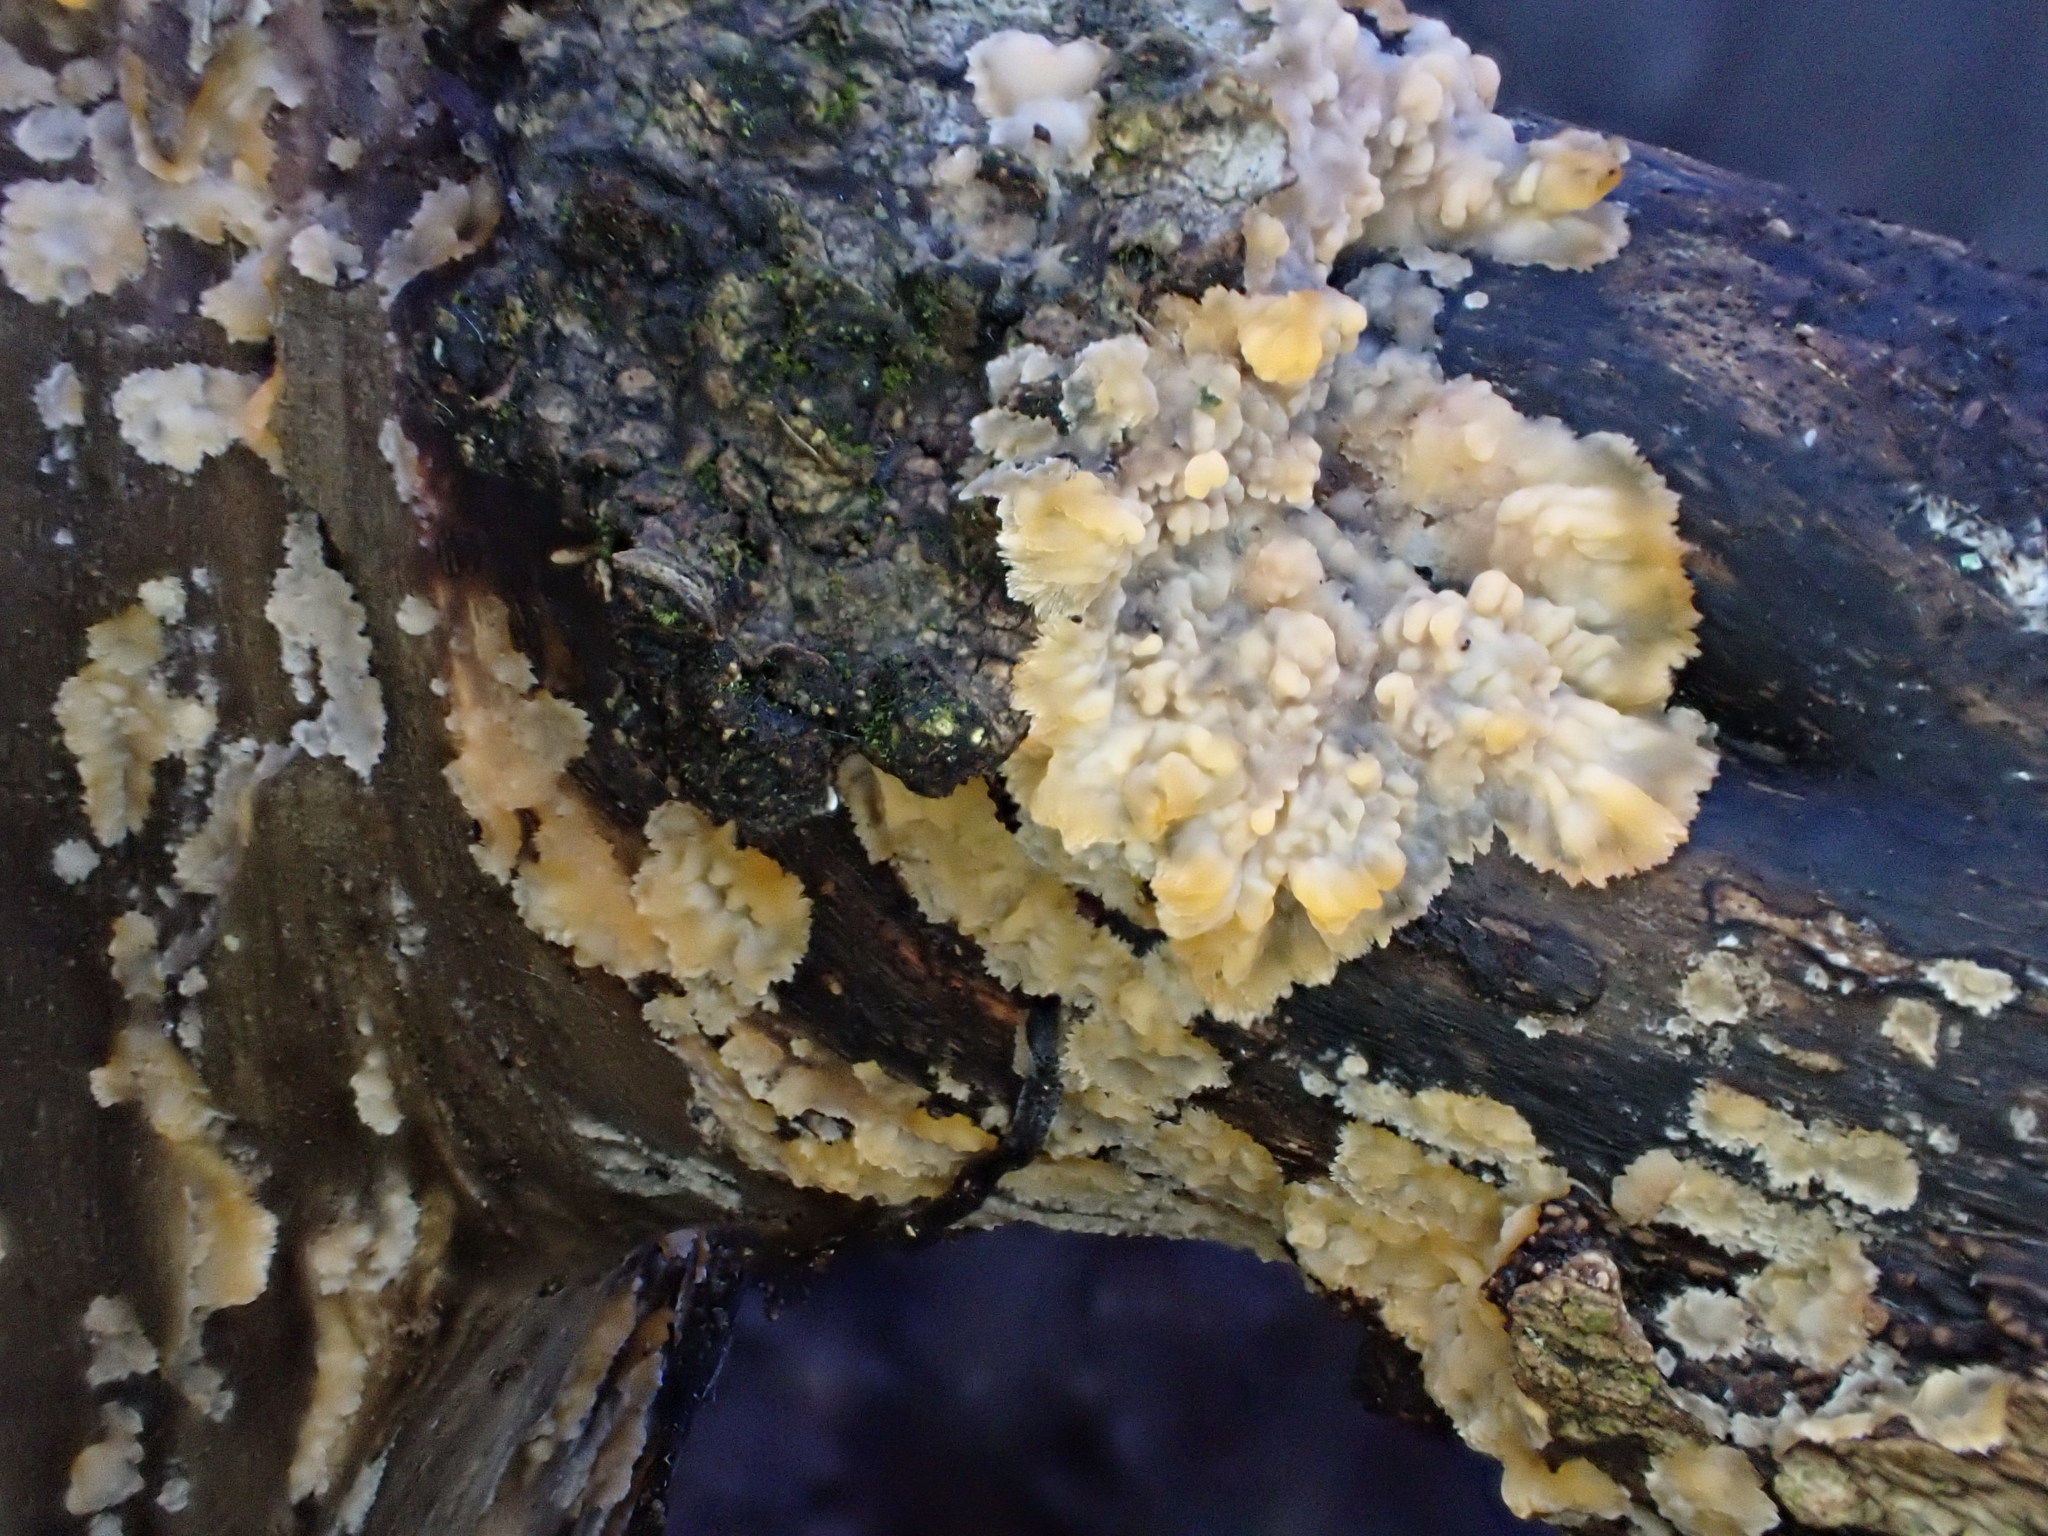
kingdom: Fungi
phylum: Basidiomycota
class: Agaricomycetes
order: Polyporales
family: Meruliaceae
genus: Phlebia
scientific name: Phlebia radiata
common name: Wrinkled crust
